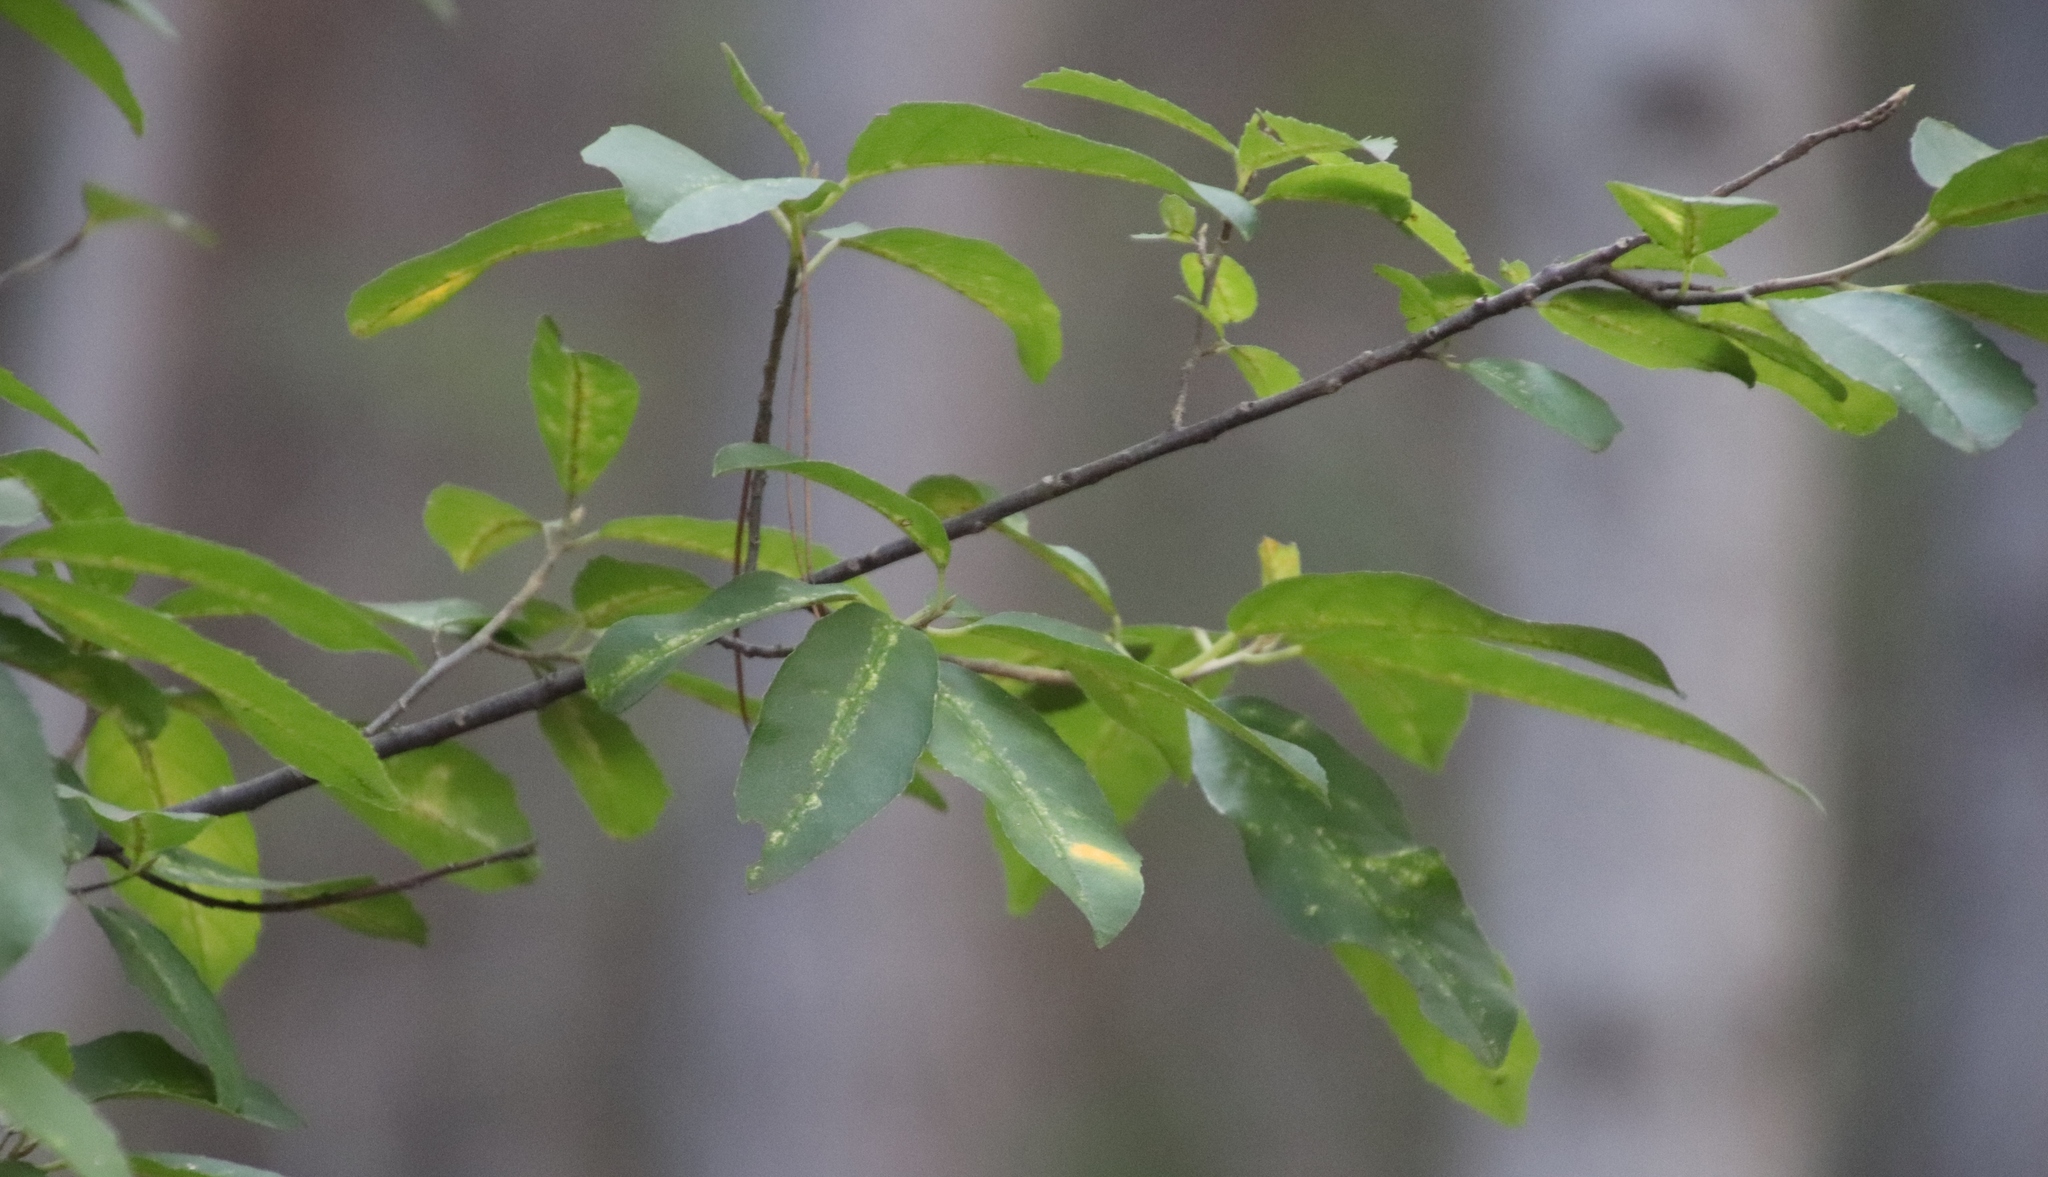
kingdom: Plantae
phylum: Tracheophyta
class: Magnoliopsida
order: Malpighiales
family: Achariaceae
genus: Kiggelaria
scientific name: Kiggelaria africana
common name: Wild peach
